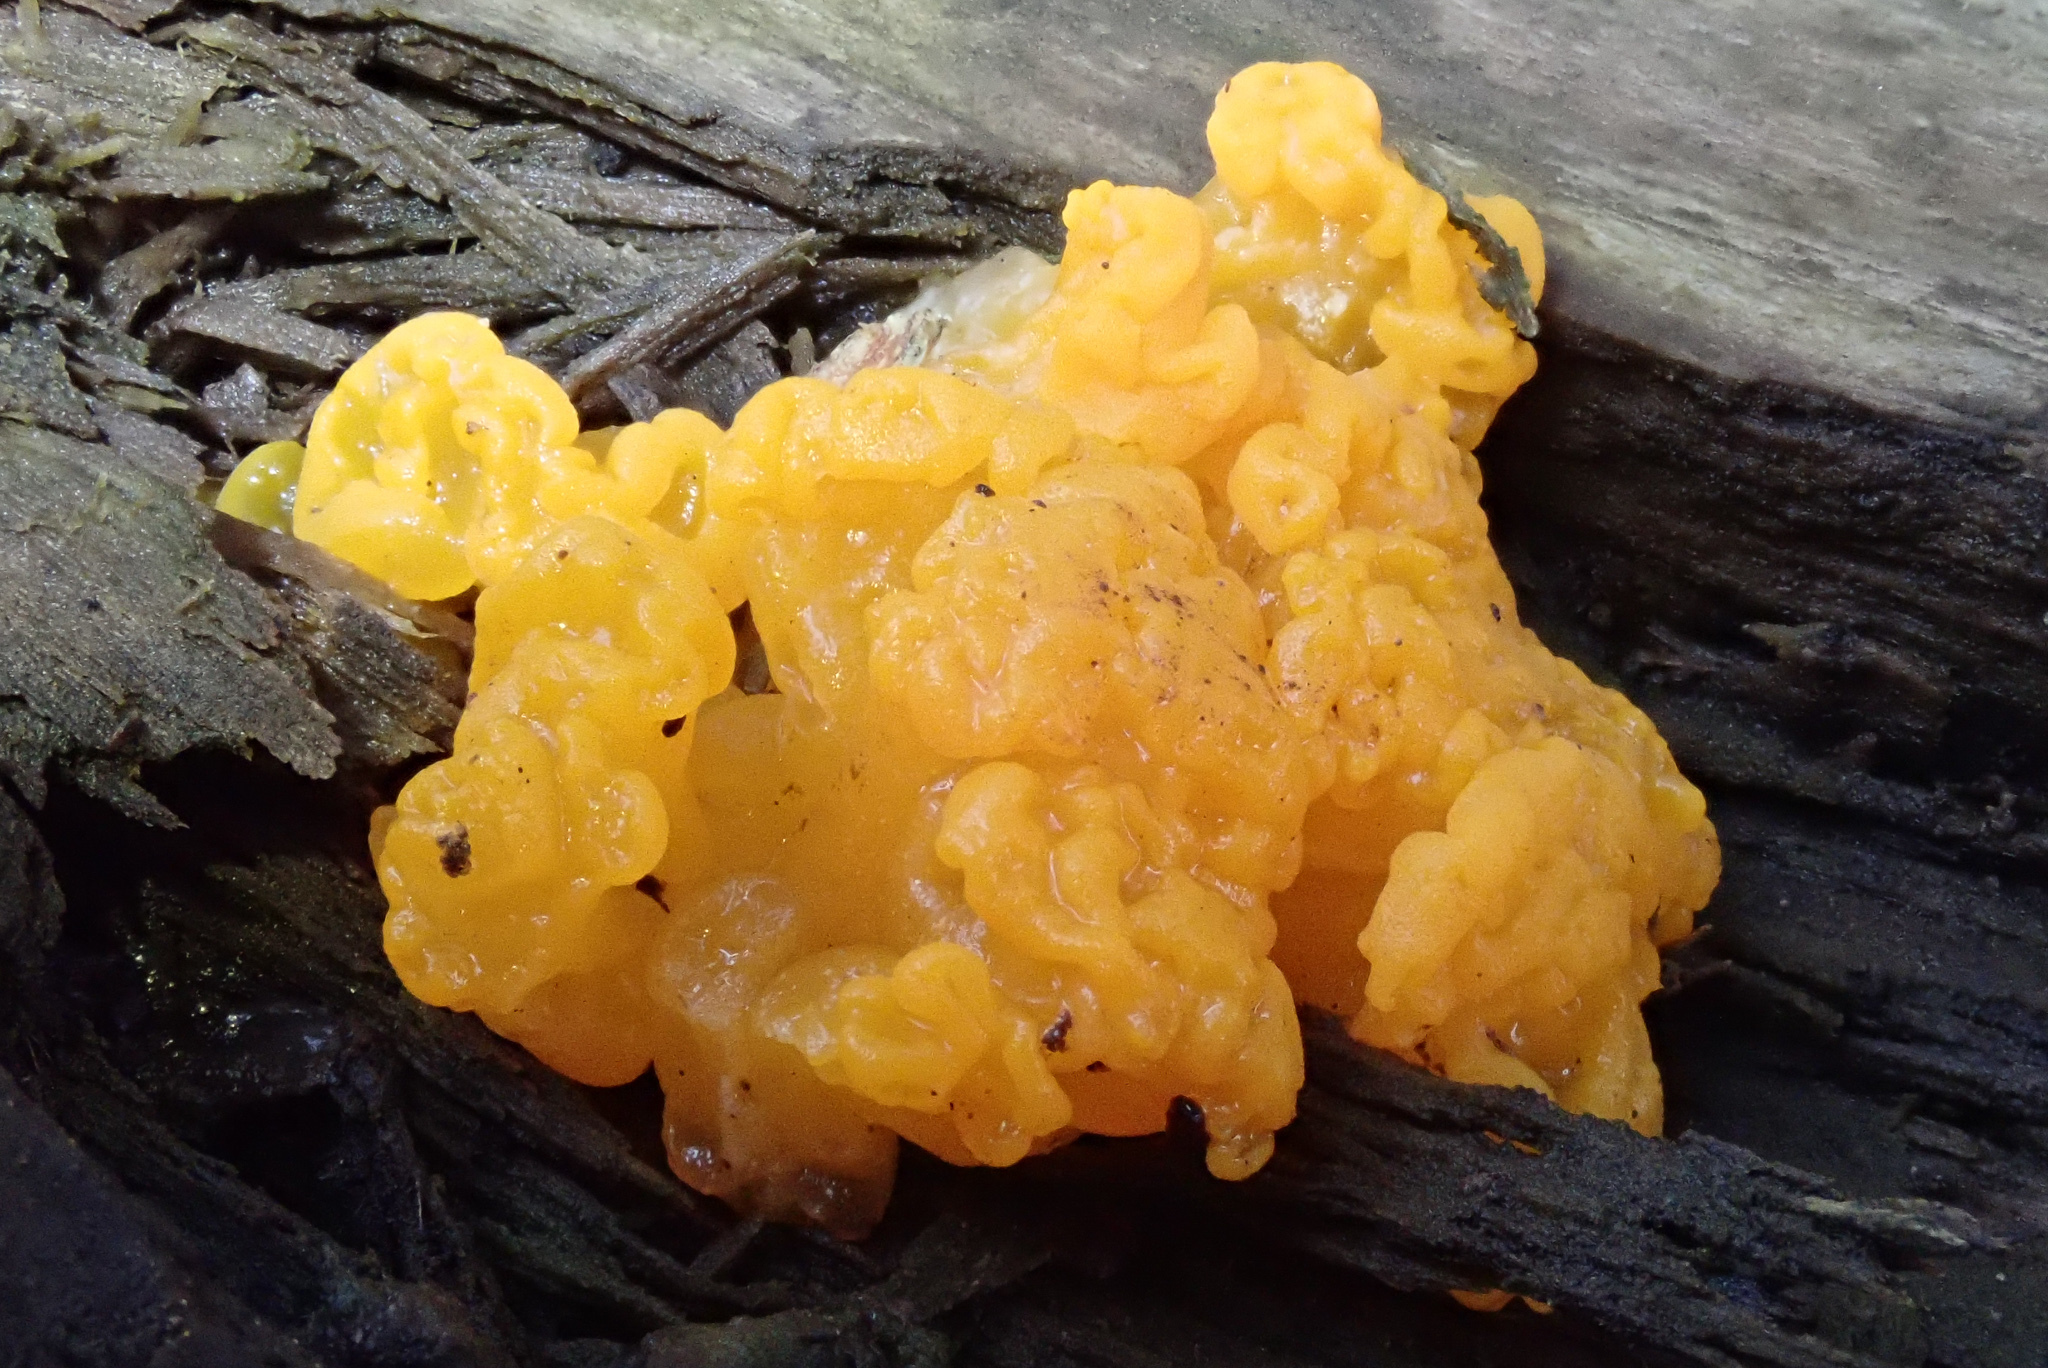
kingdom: Fungi
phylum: Basidiomycota
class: Dacrymycetes
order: Dacrymycetales
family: Dacrymycetaceae
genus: Dacrymyces
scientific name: Dacrymyces chrysospermus
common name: Orange jelly spot
